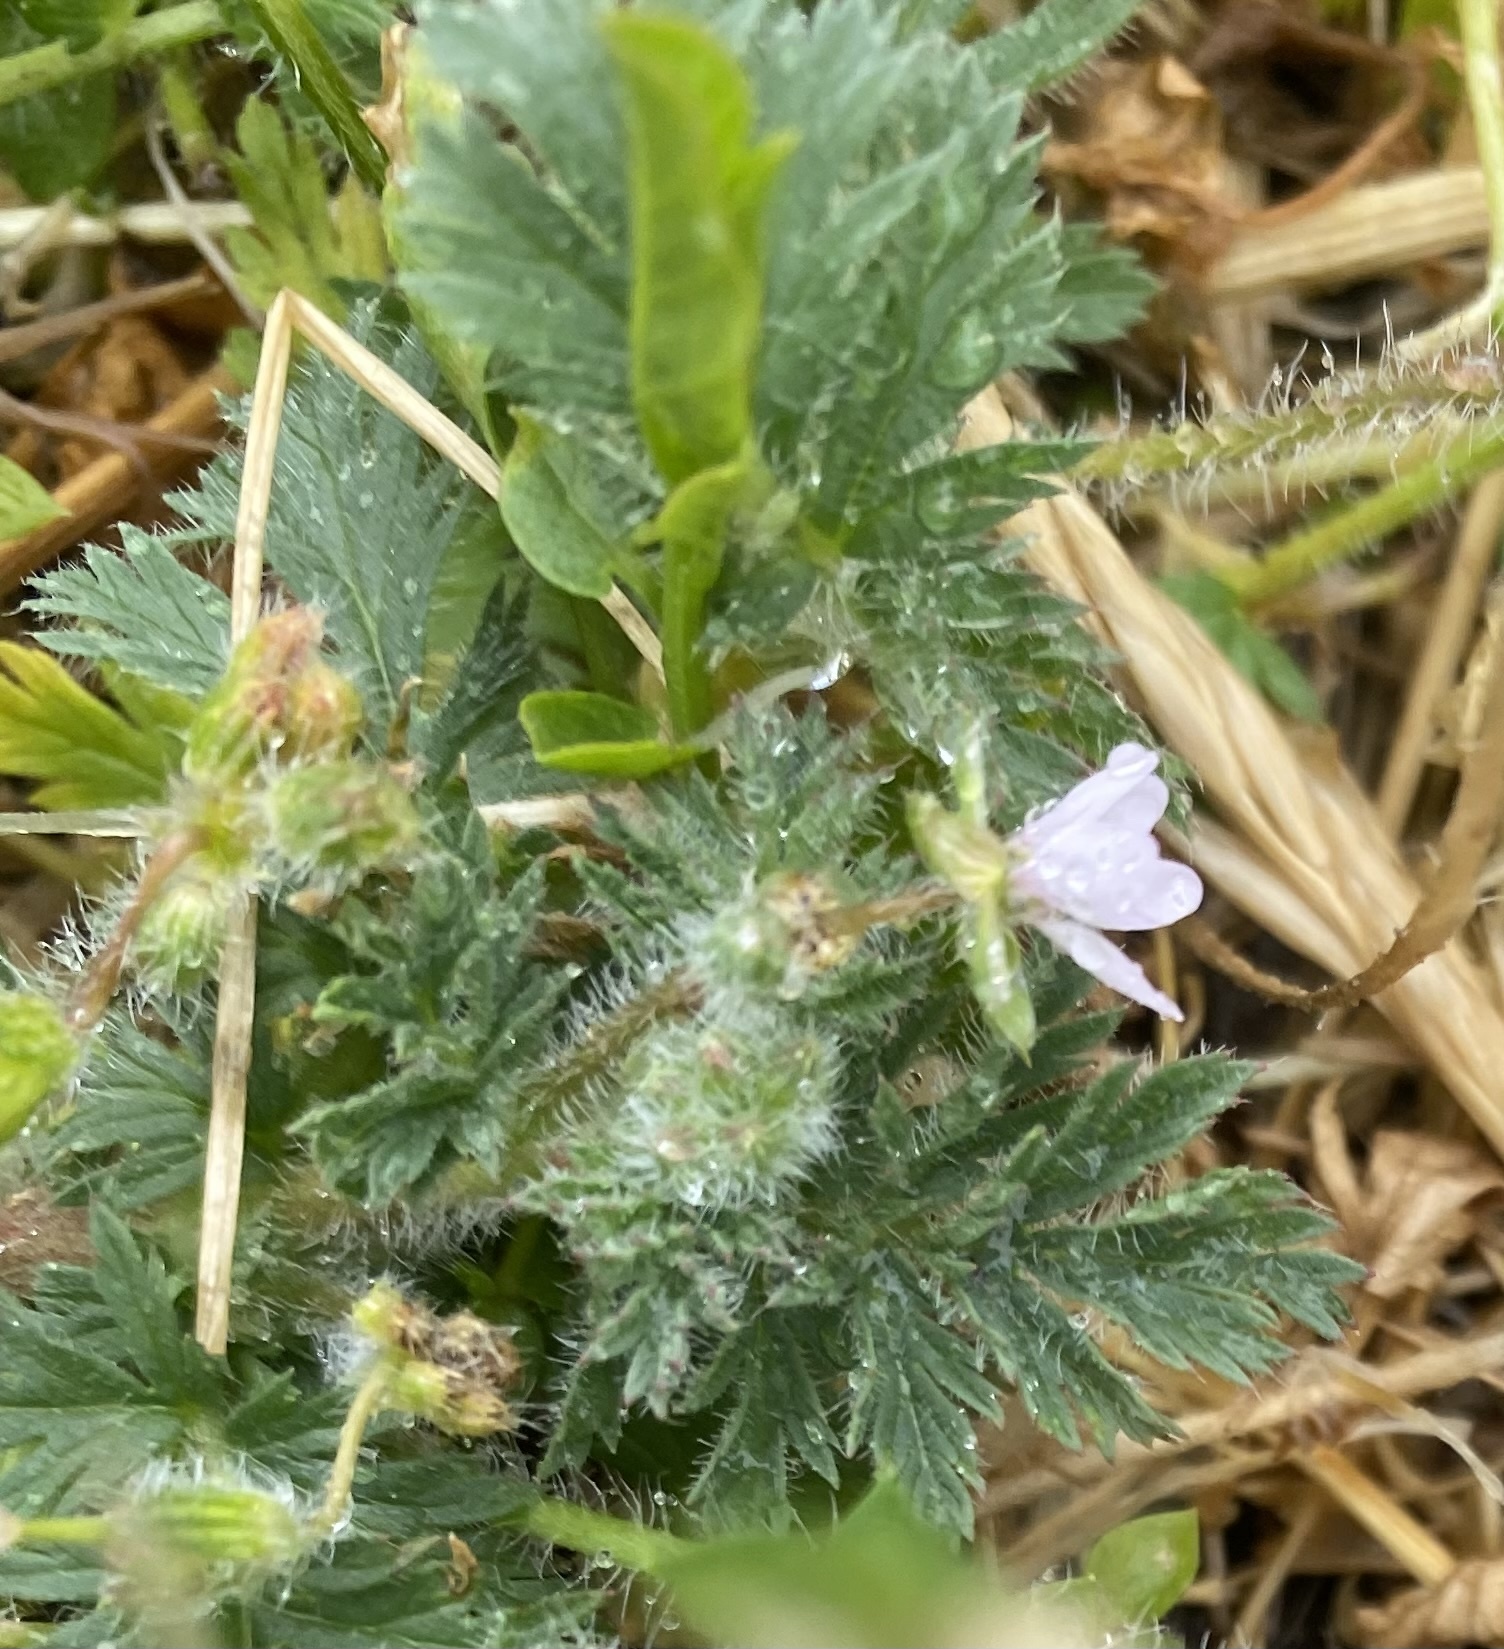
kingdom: Plantae
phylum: Tracheophyta
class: Magnoliopsida
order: Geraniales
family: Geraniaceae
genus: Erodium
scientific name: Erodium cicutarium
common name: Common stork's-bill
